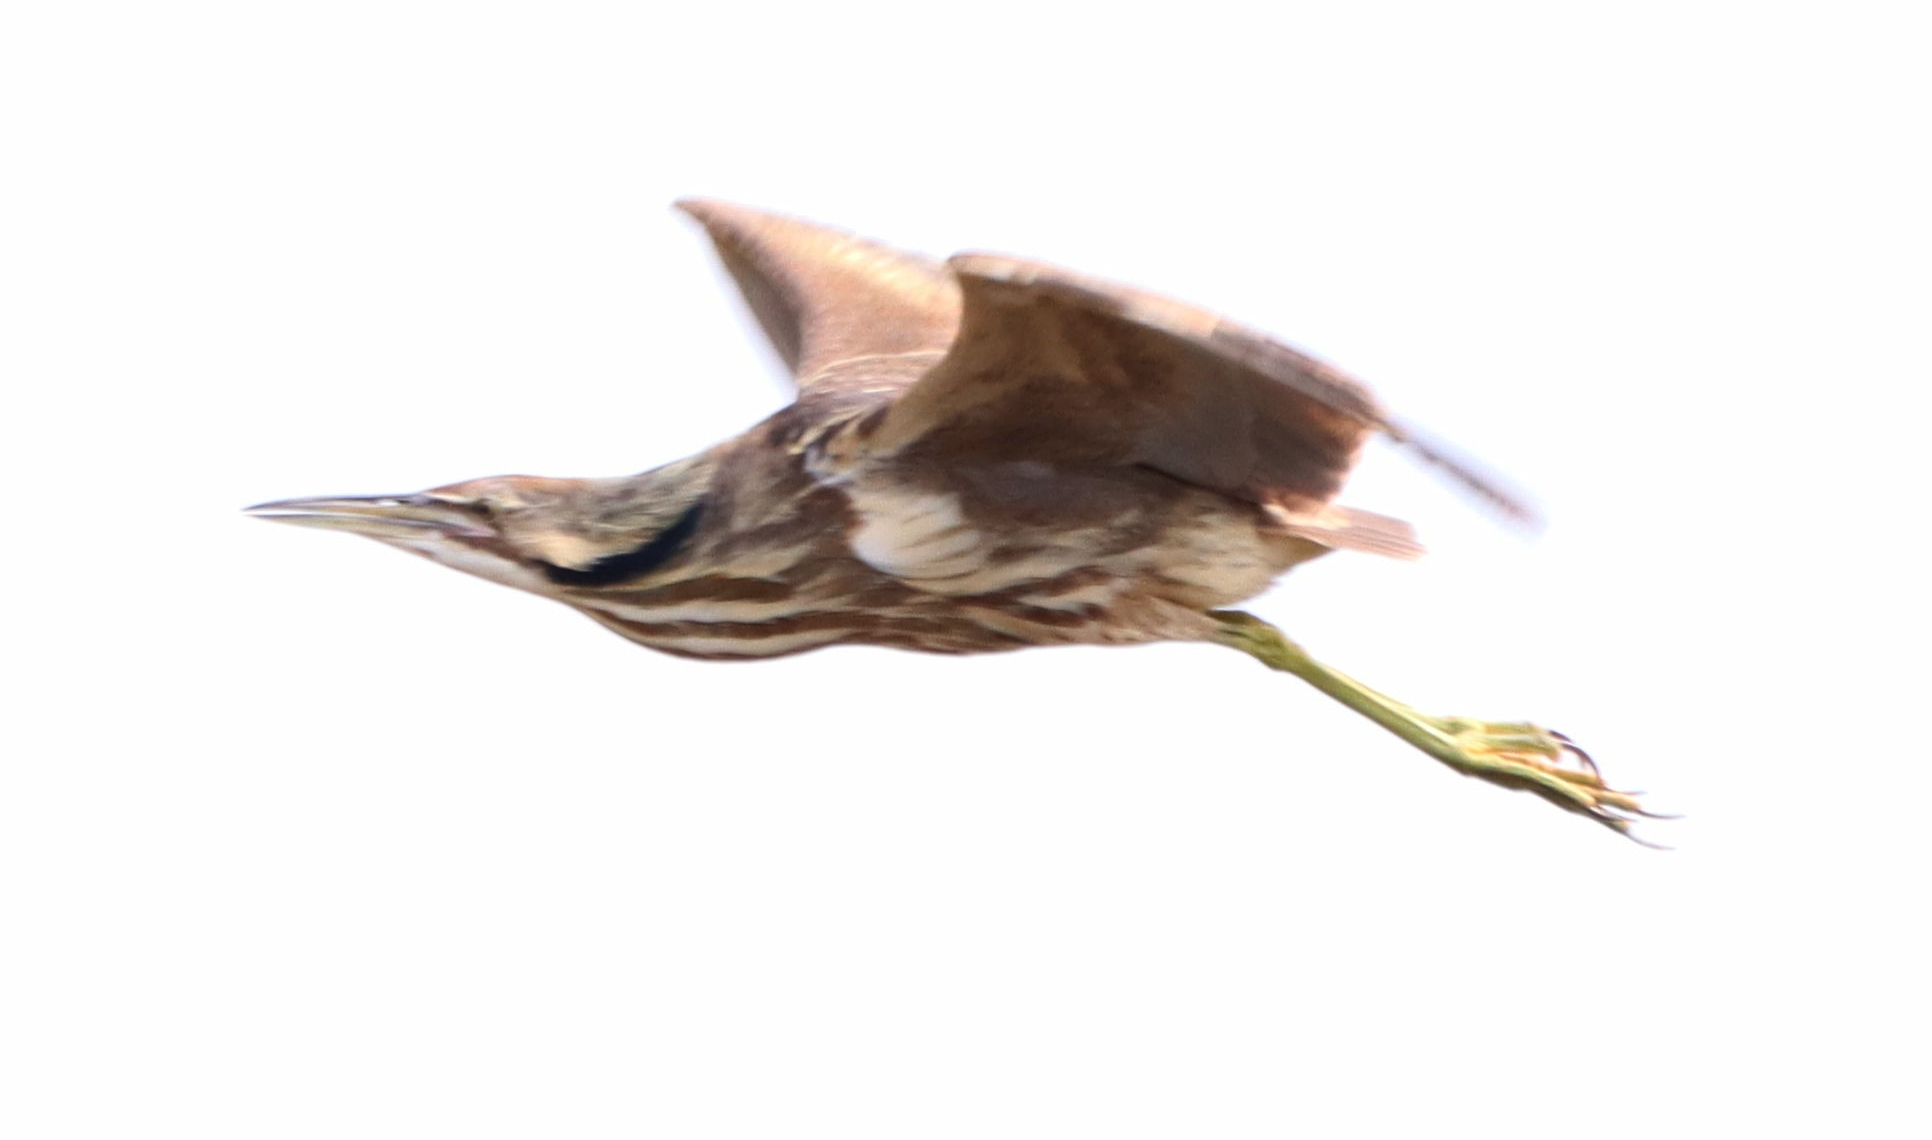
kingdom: Animalia
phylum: Chordata
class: Aves
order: Pelecaniformes
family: Ardeidae
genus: Botaurus
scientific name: Botaurus lentiginosus
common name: American bittern
